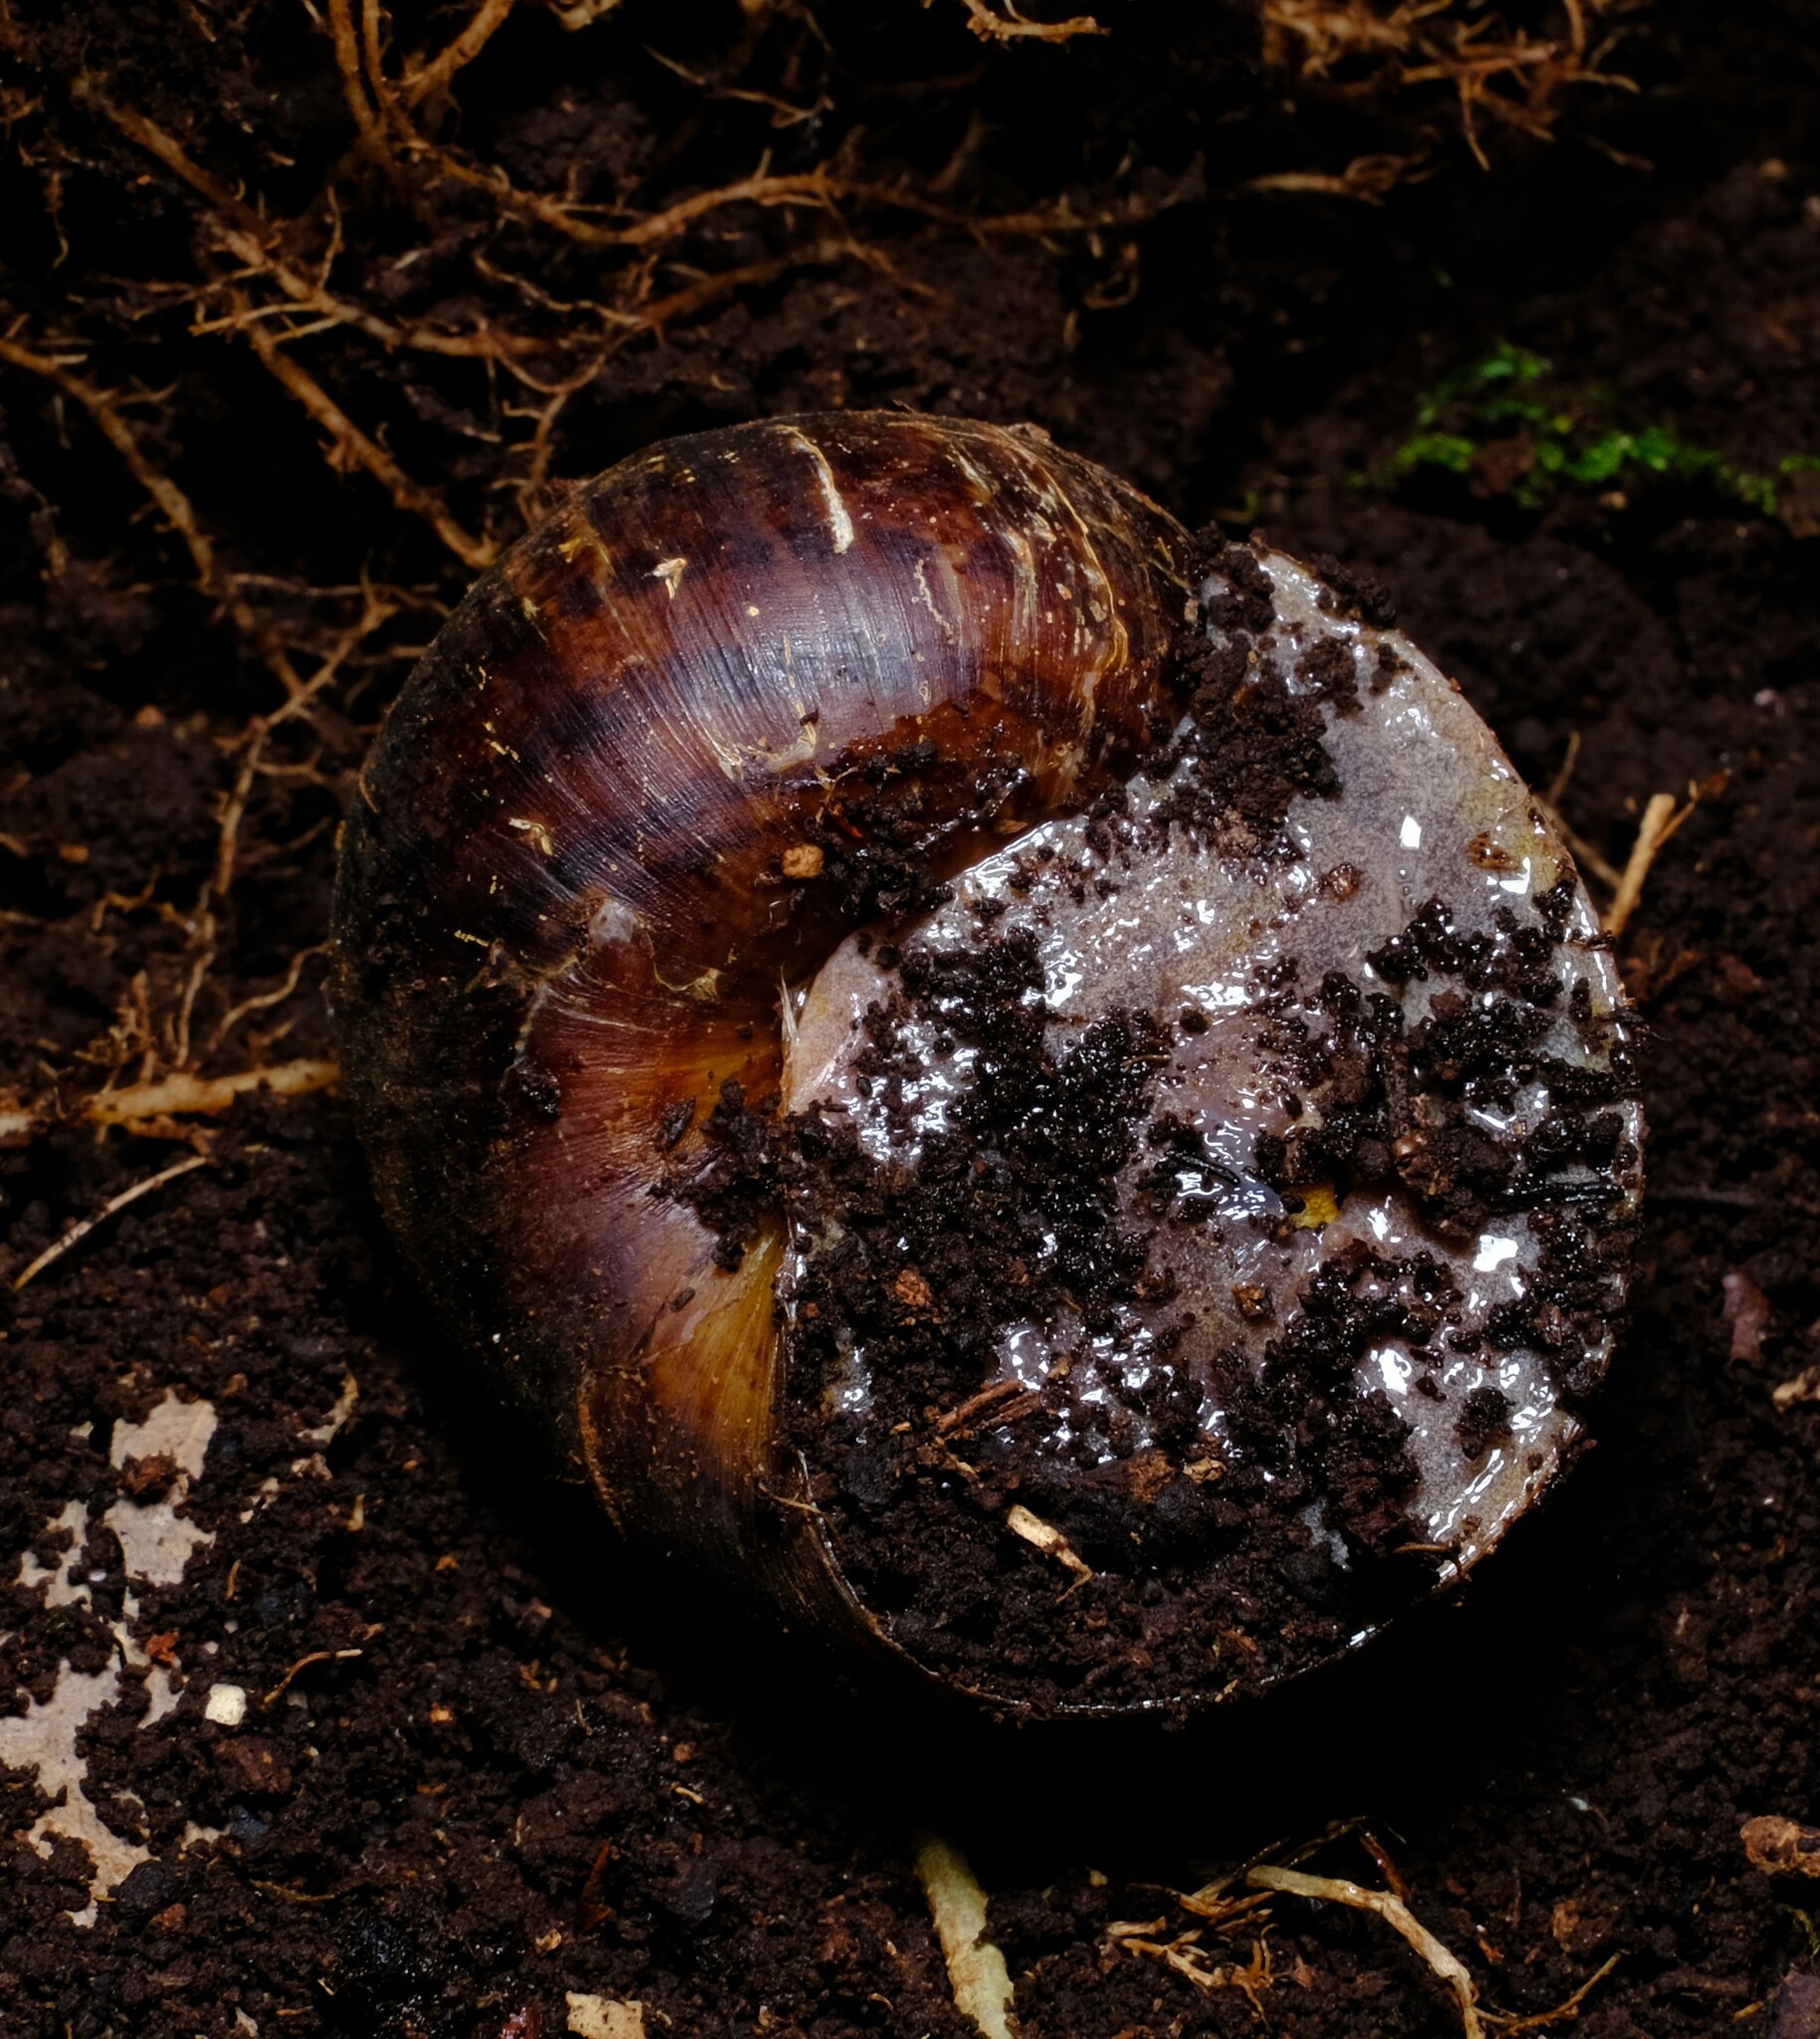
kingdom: Animalia
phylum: Mollusca
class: Gastropoda
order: Stylommatophora
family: Caryodidae
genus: Hedleyella
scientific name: Hedleyella falconeri
